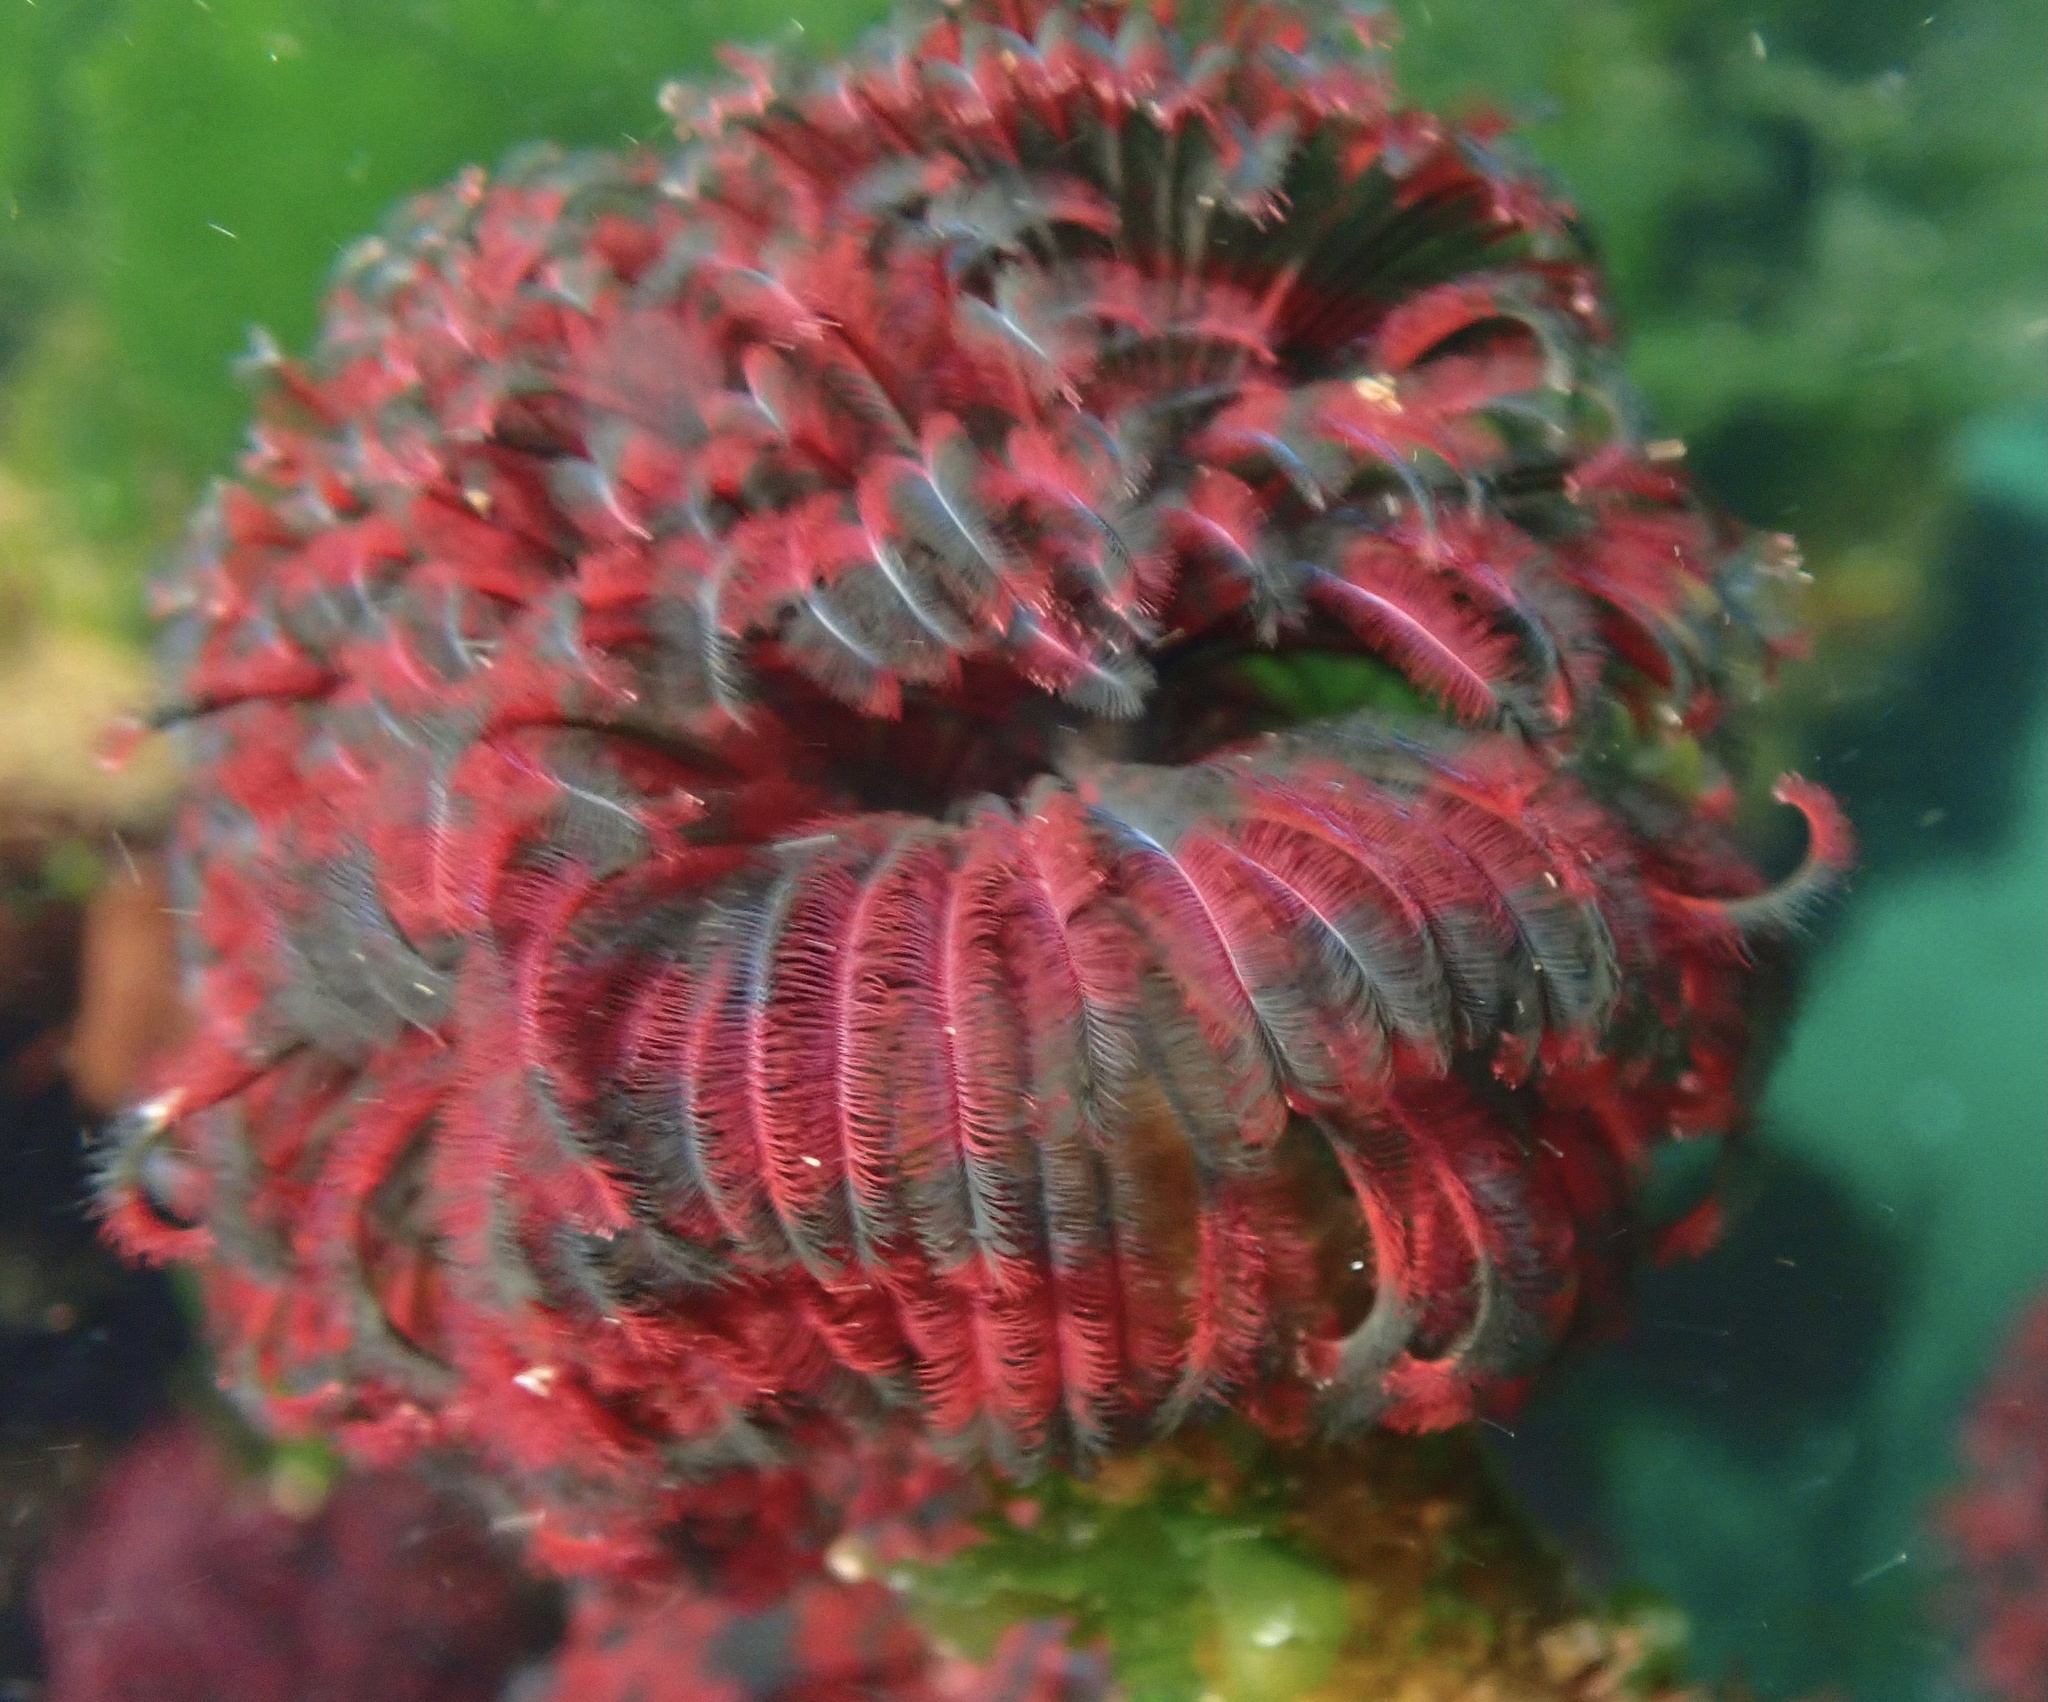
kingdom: Animalia
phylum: Annelida
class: Polychaeta
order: Sabellida
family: Sabellidae
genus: Eudistylia
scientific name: Eudistylia vancouveri
